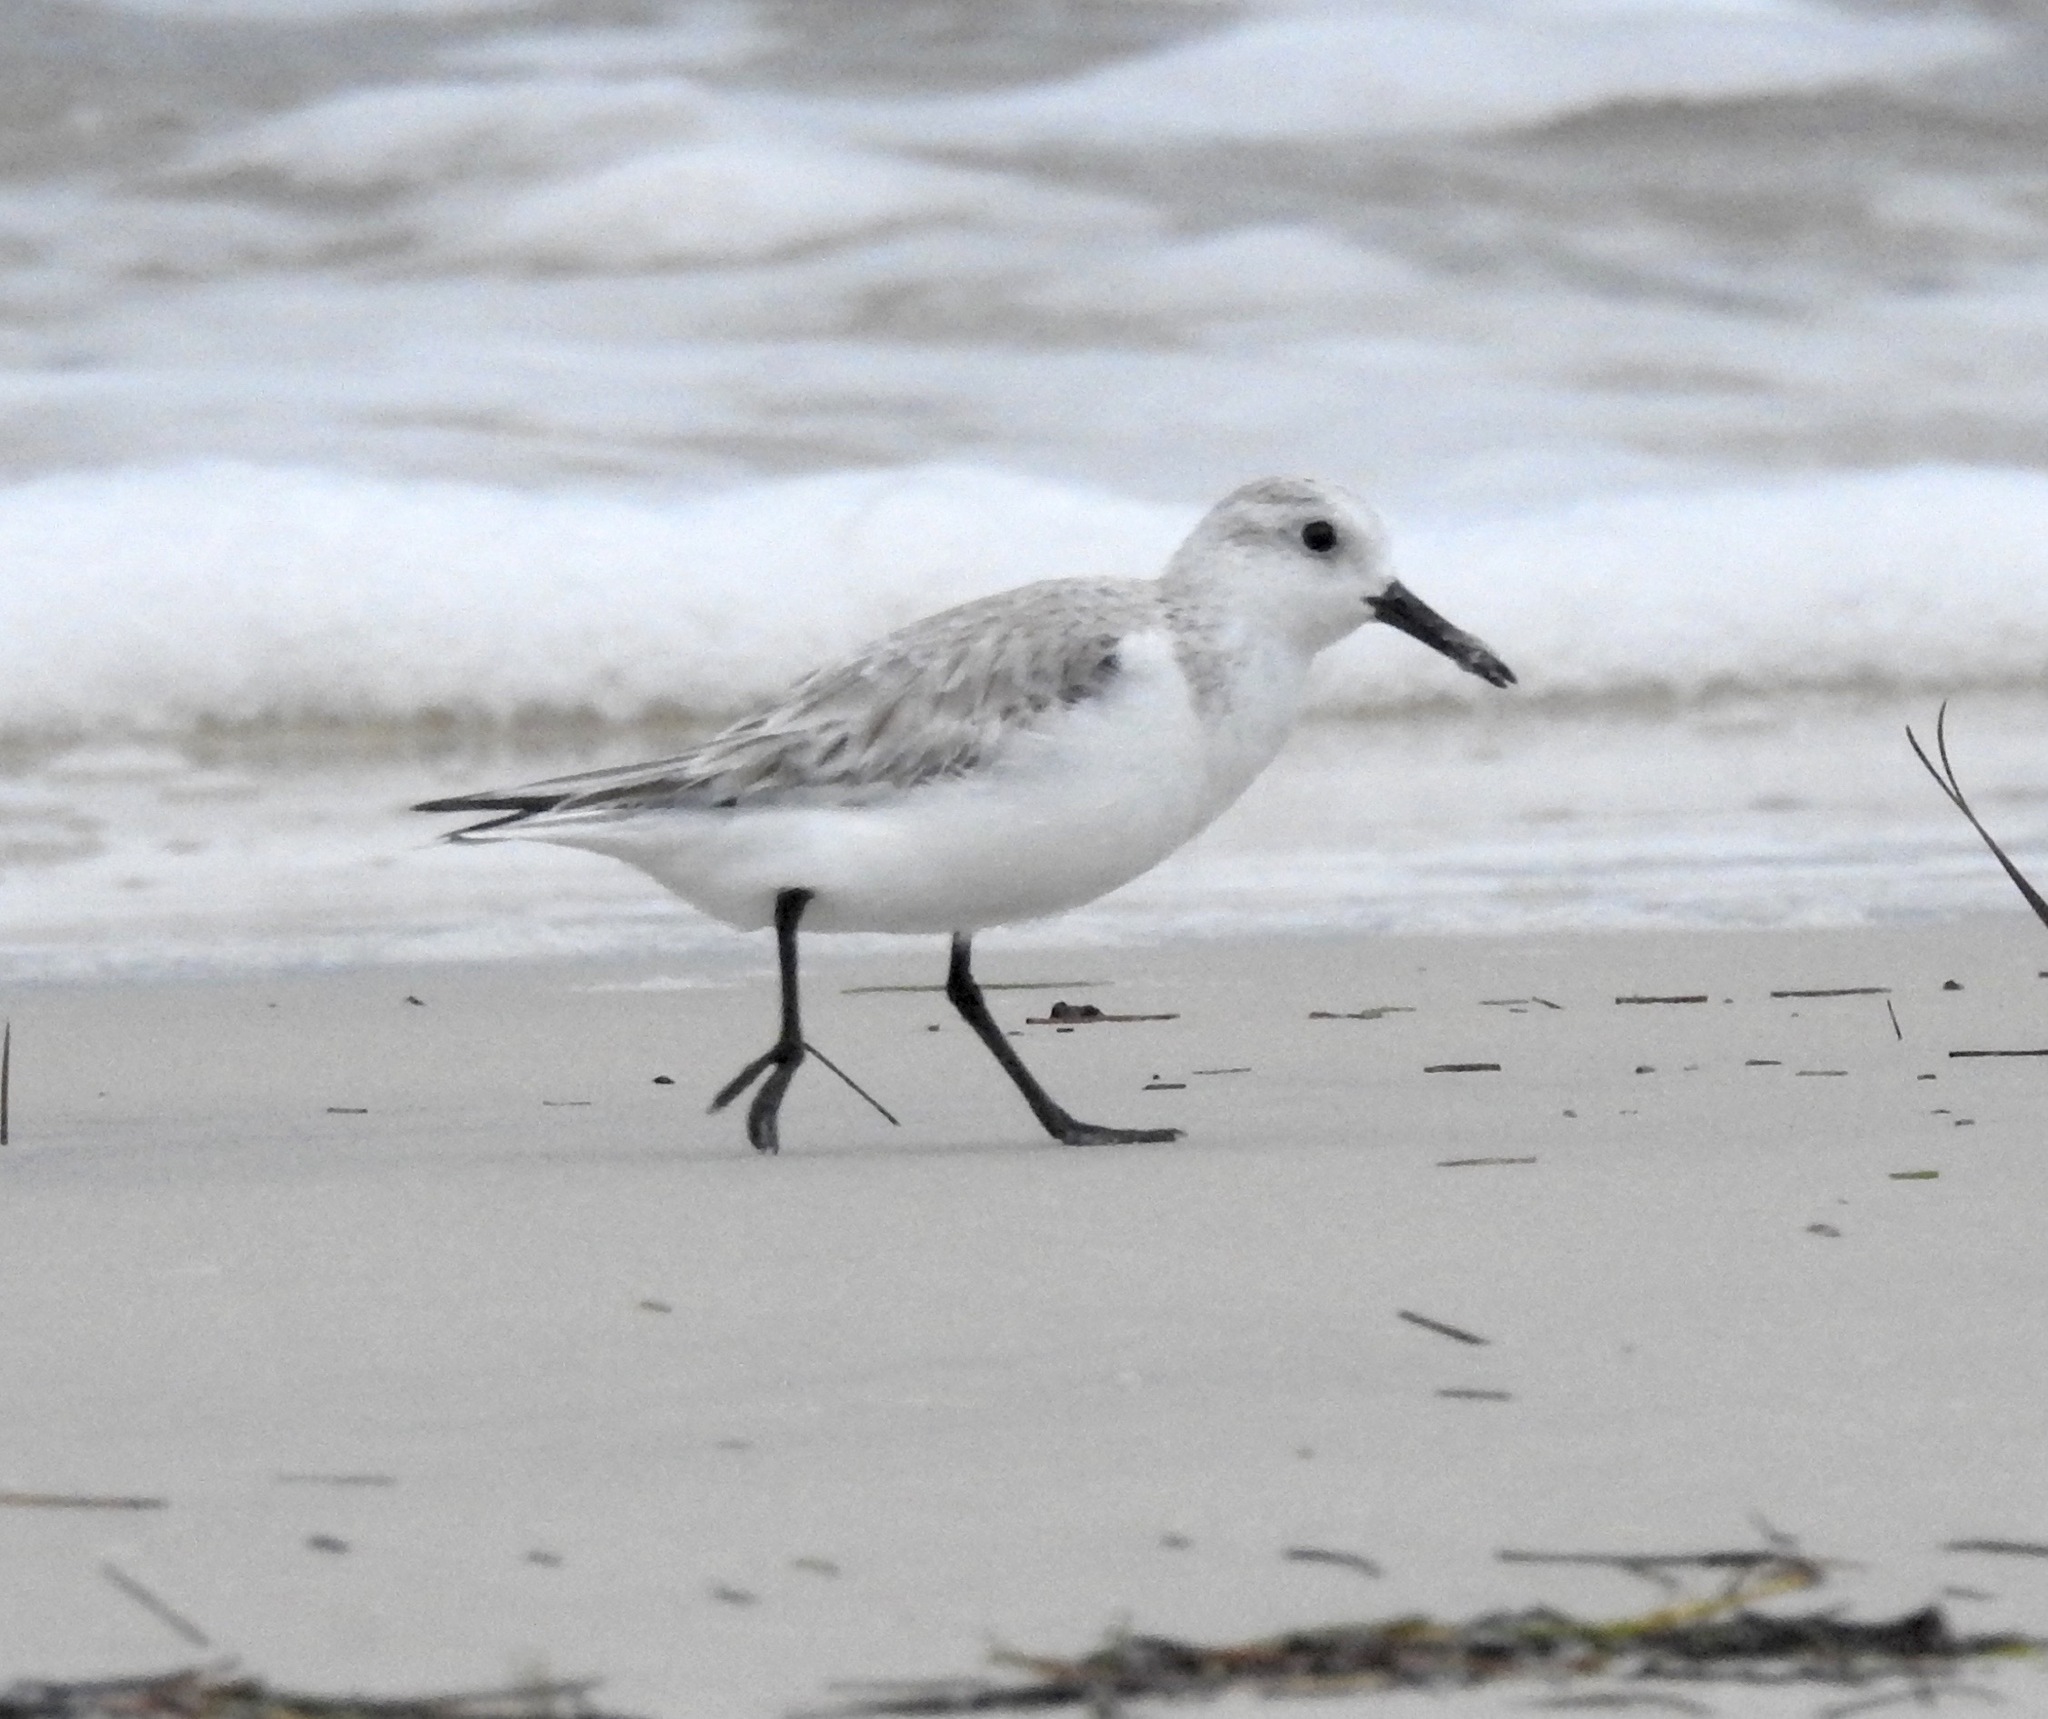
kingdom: Animalia
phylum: Chordata
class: Aves
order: Charadriiformes
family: Scolopacidae
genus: Calidris
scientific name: Calidris alba
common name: Sanderling
